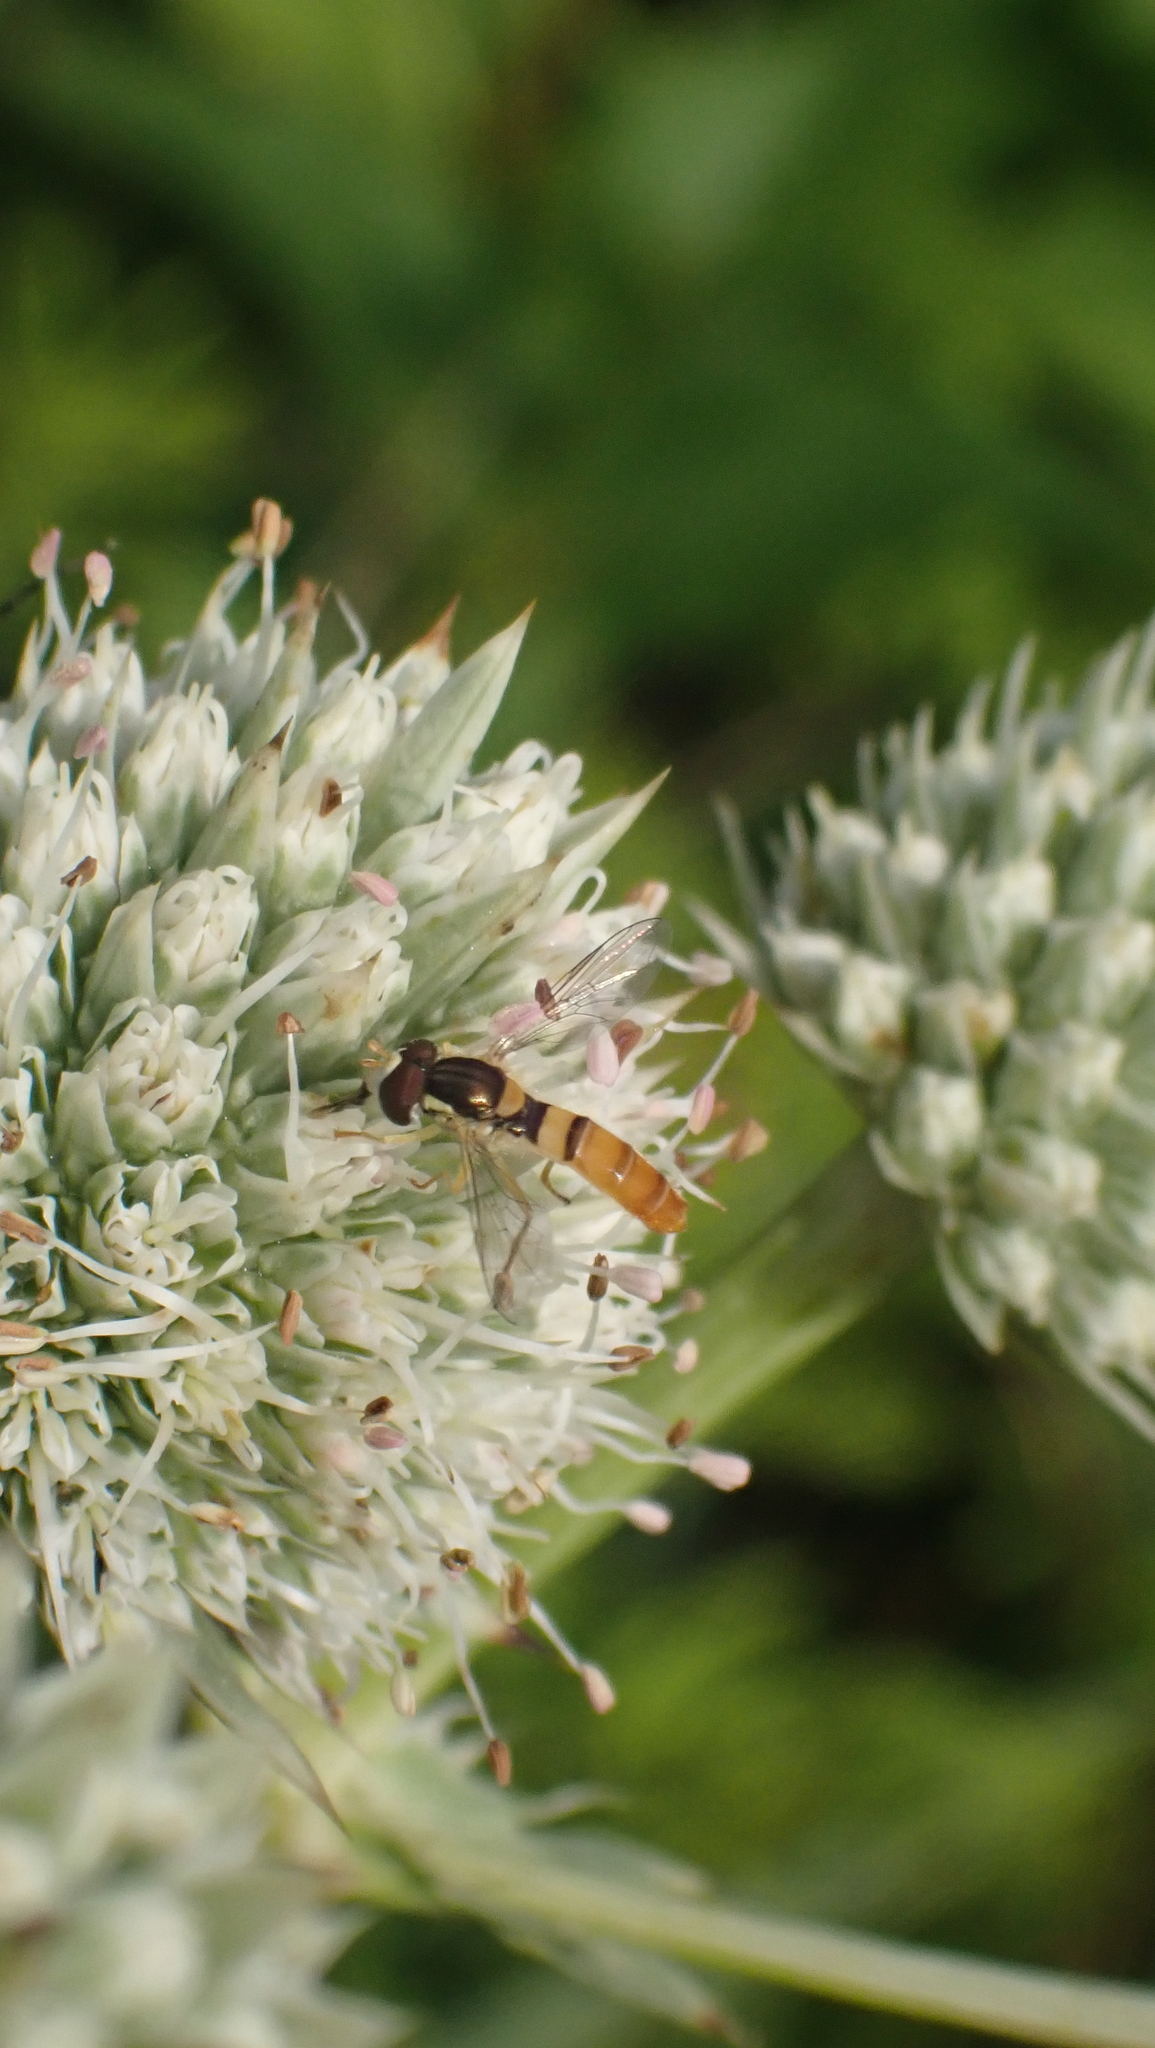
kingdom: Animalia
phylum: Arthropoda
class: Insecta
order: Diptera
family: Syrphidae
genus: Sphaerophoria
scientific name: Sphaerophoria contigua
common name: Tufted globetail
